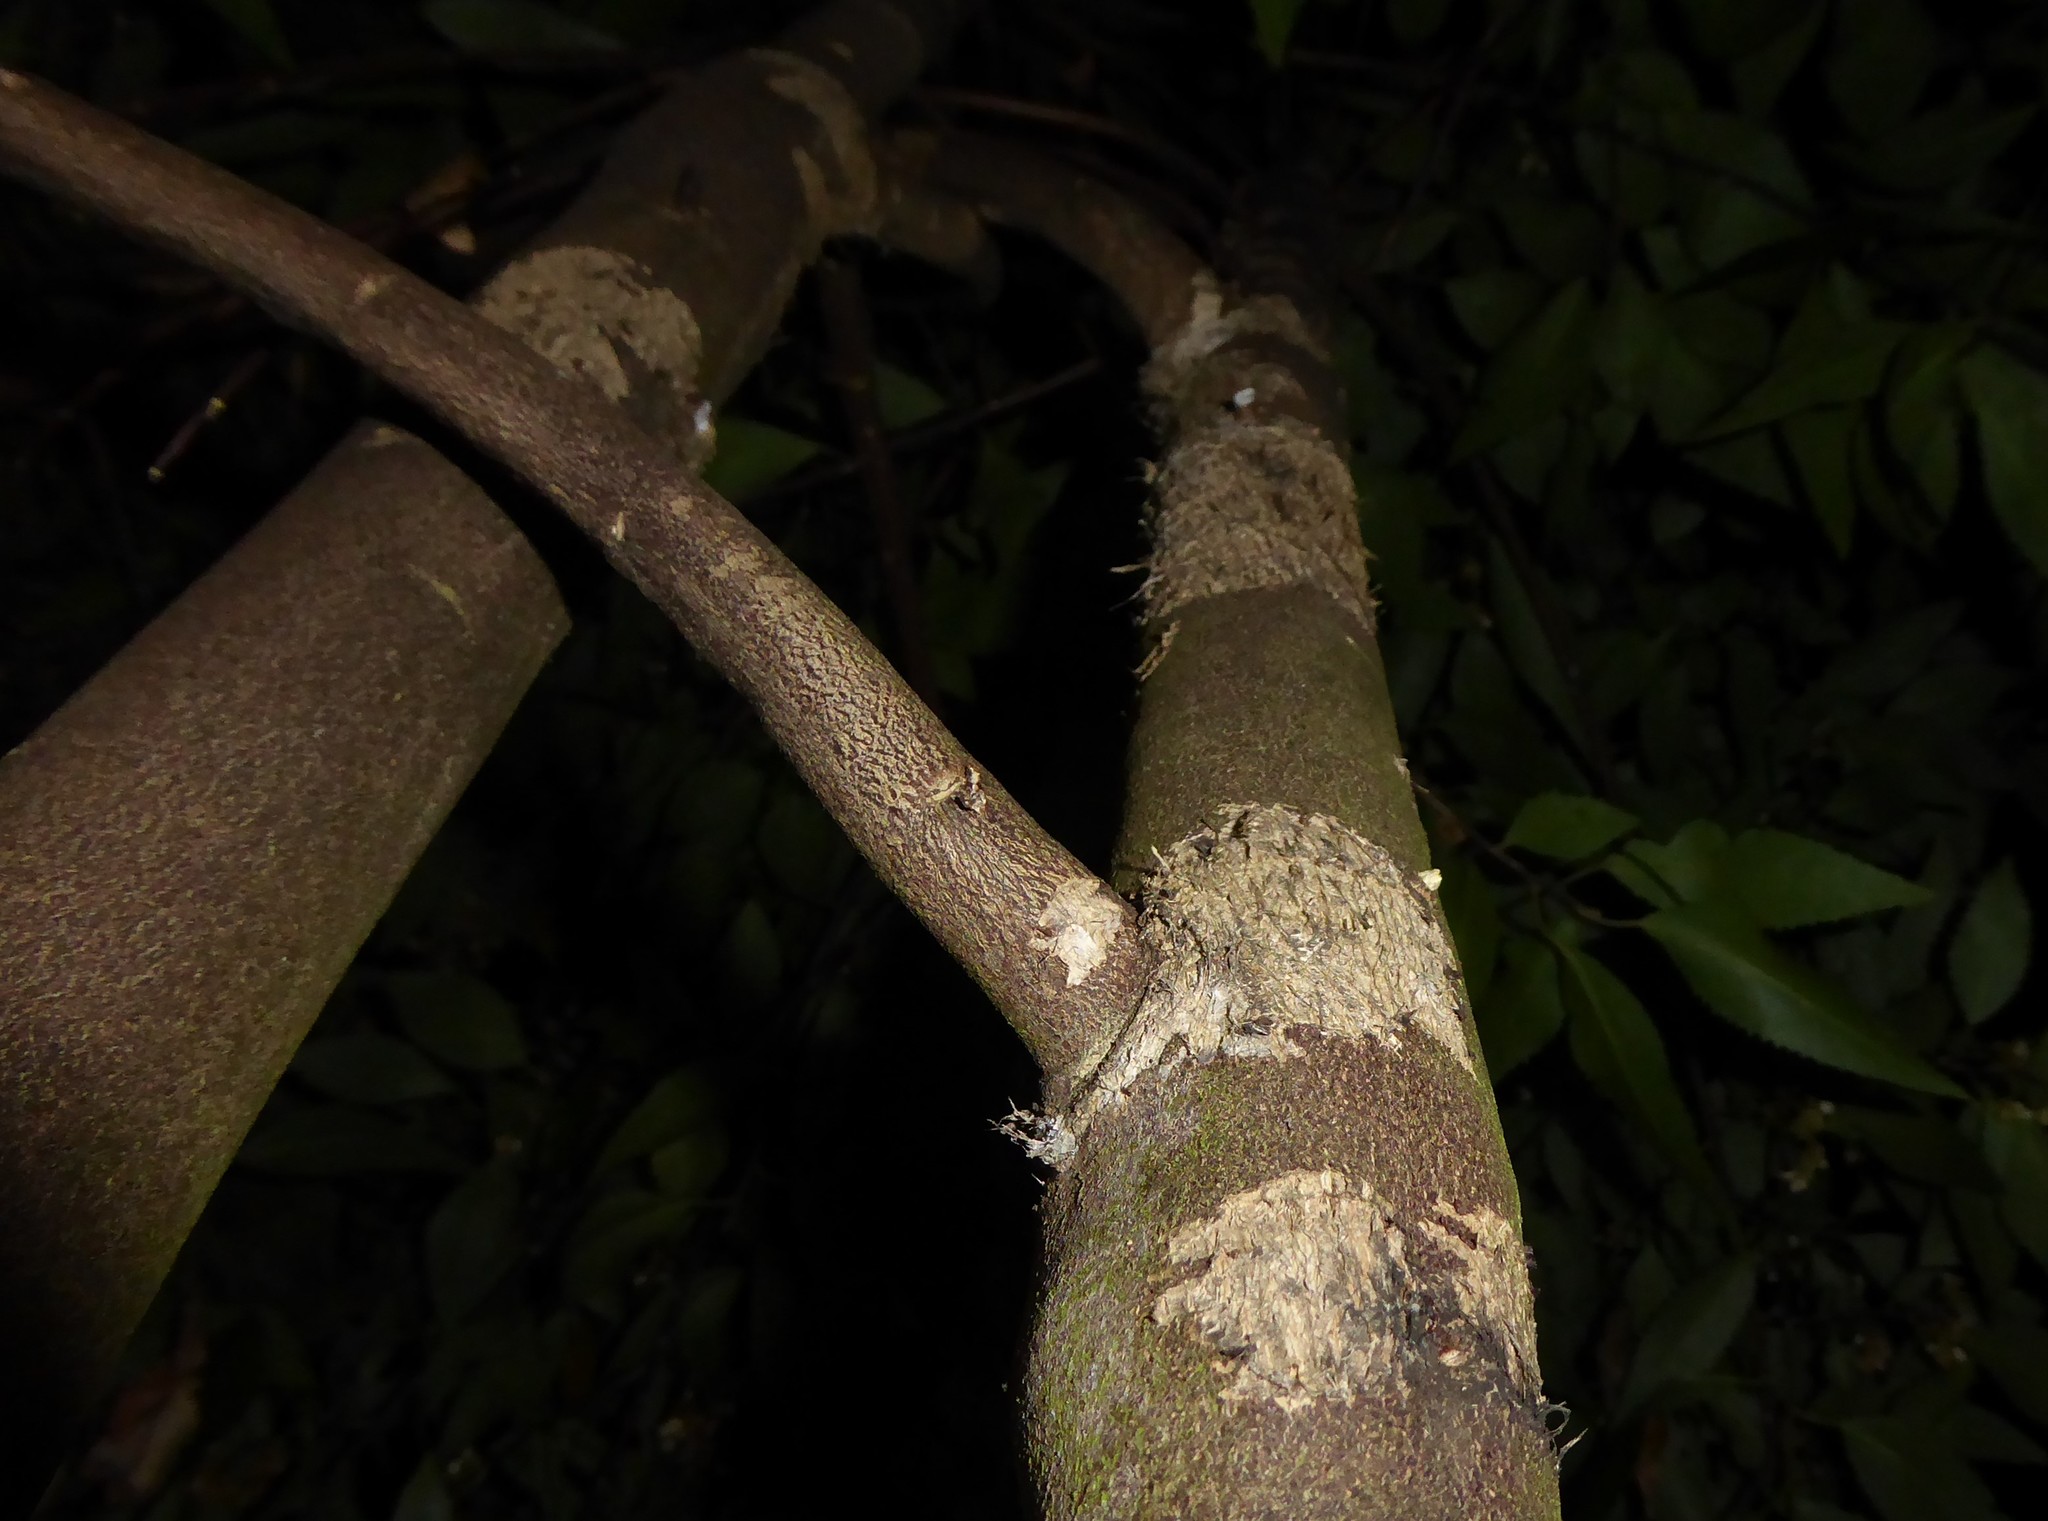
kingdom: Animalia
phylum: Chordata
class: Mammalia
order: Diprotodontia
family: Phalangeridae
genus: Trichosurus
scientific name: Trichosurus vulpecula
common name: Common brushtail
